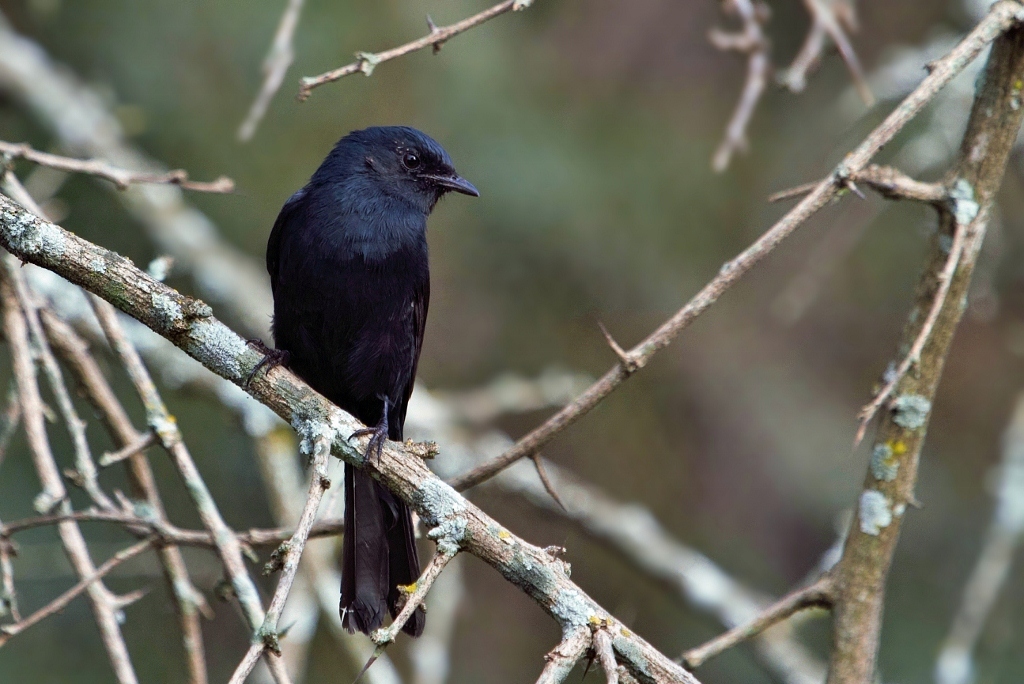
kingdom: Animalia
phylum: Chordata
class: Aves
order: Passeriformes
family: Muscicapidae
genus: Melaenornis
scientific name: Melaenornis pammelaina
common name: Southern black flycatcher
